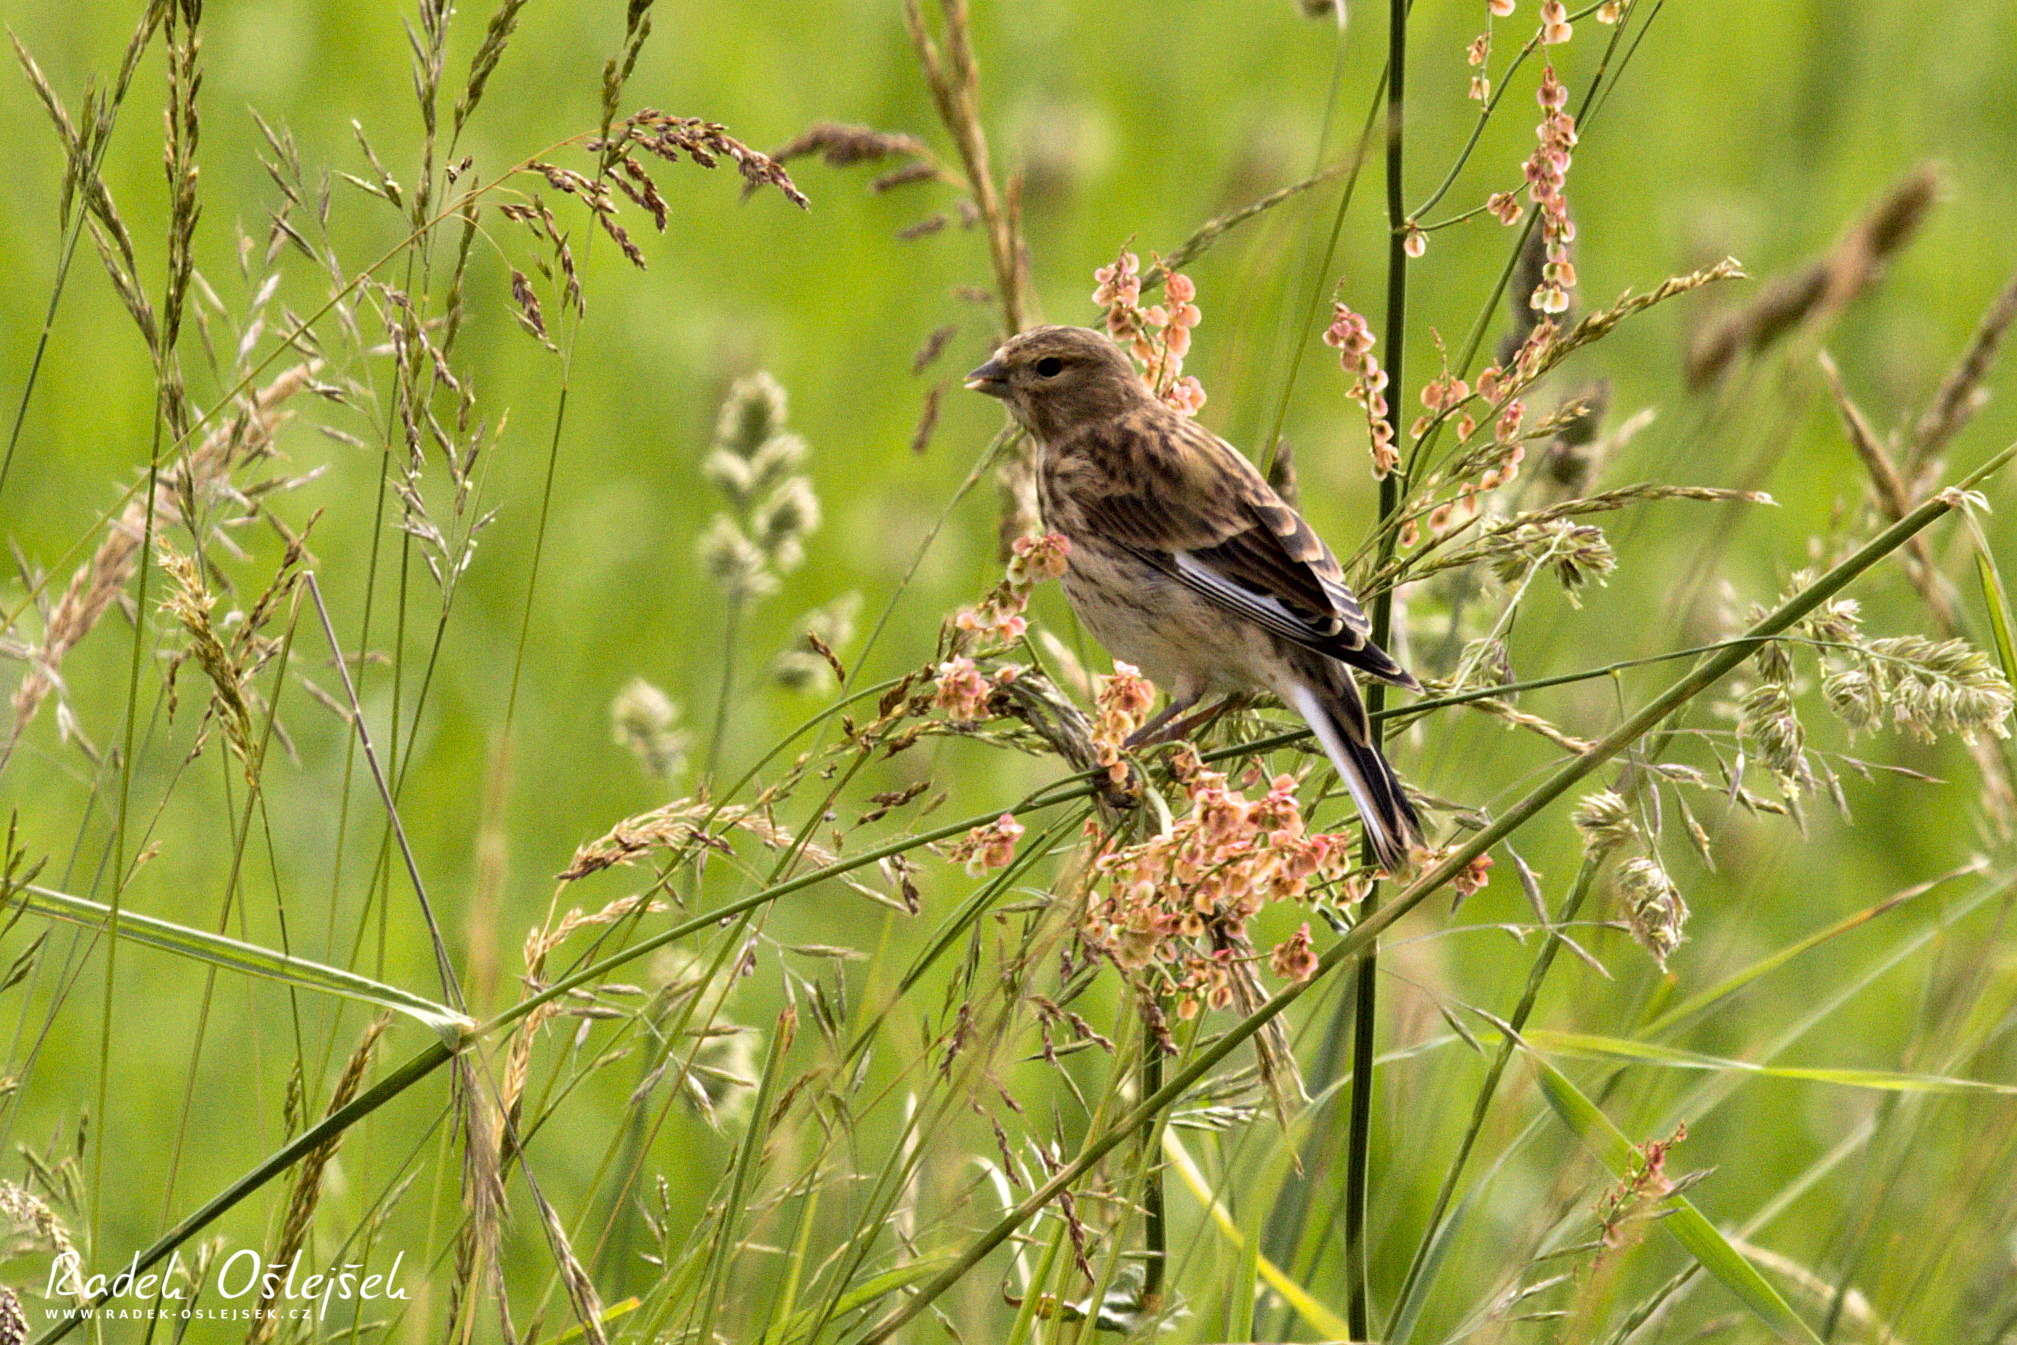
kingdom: Animalia
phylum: Chordata
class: Aves
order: Passeriformes
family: Fringillidae
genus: Linaria
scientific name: Linaria cannabina
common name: Common linnet
